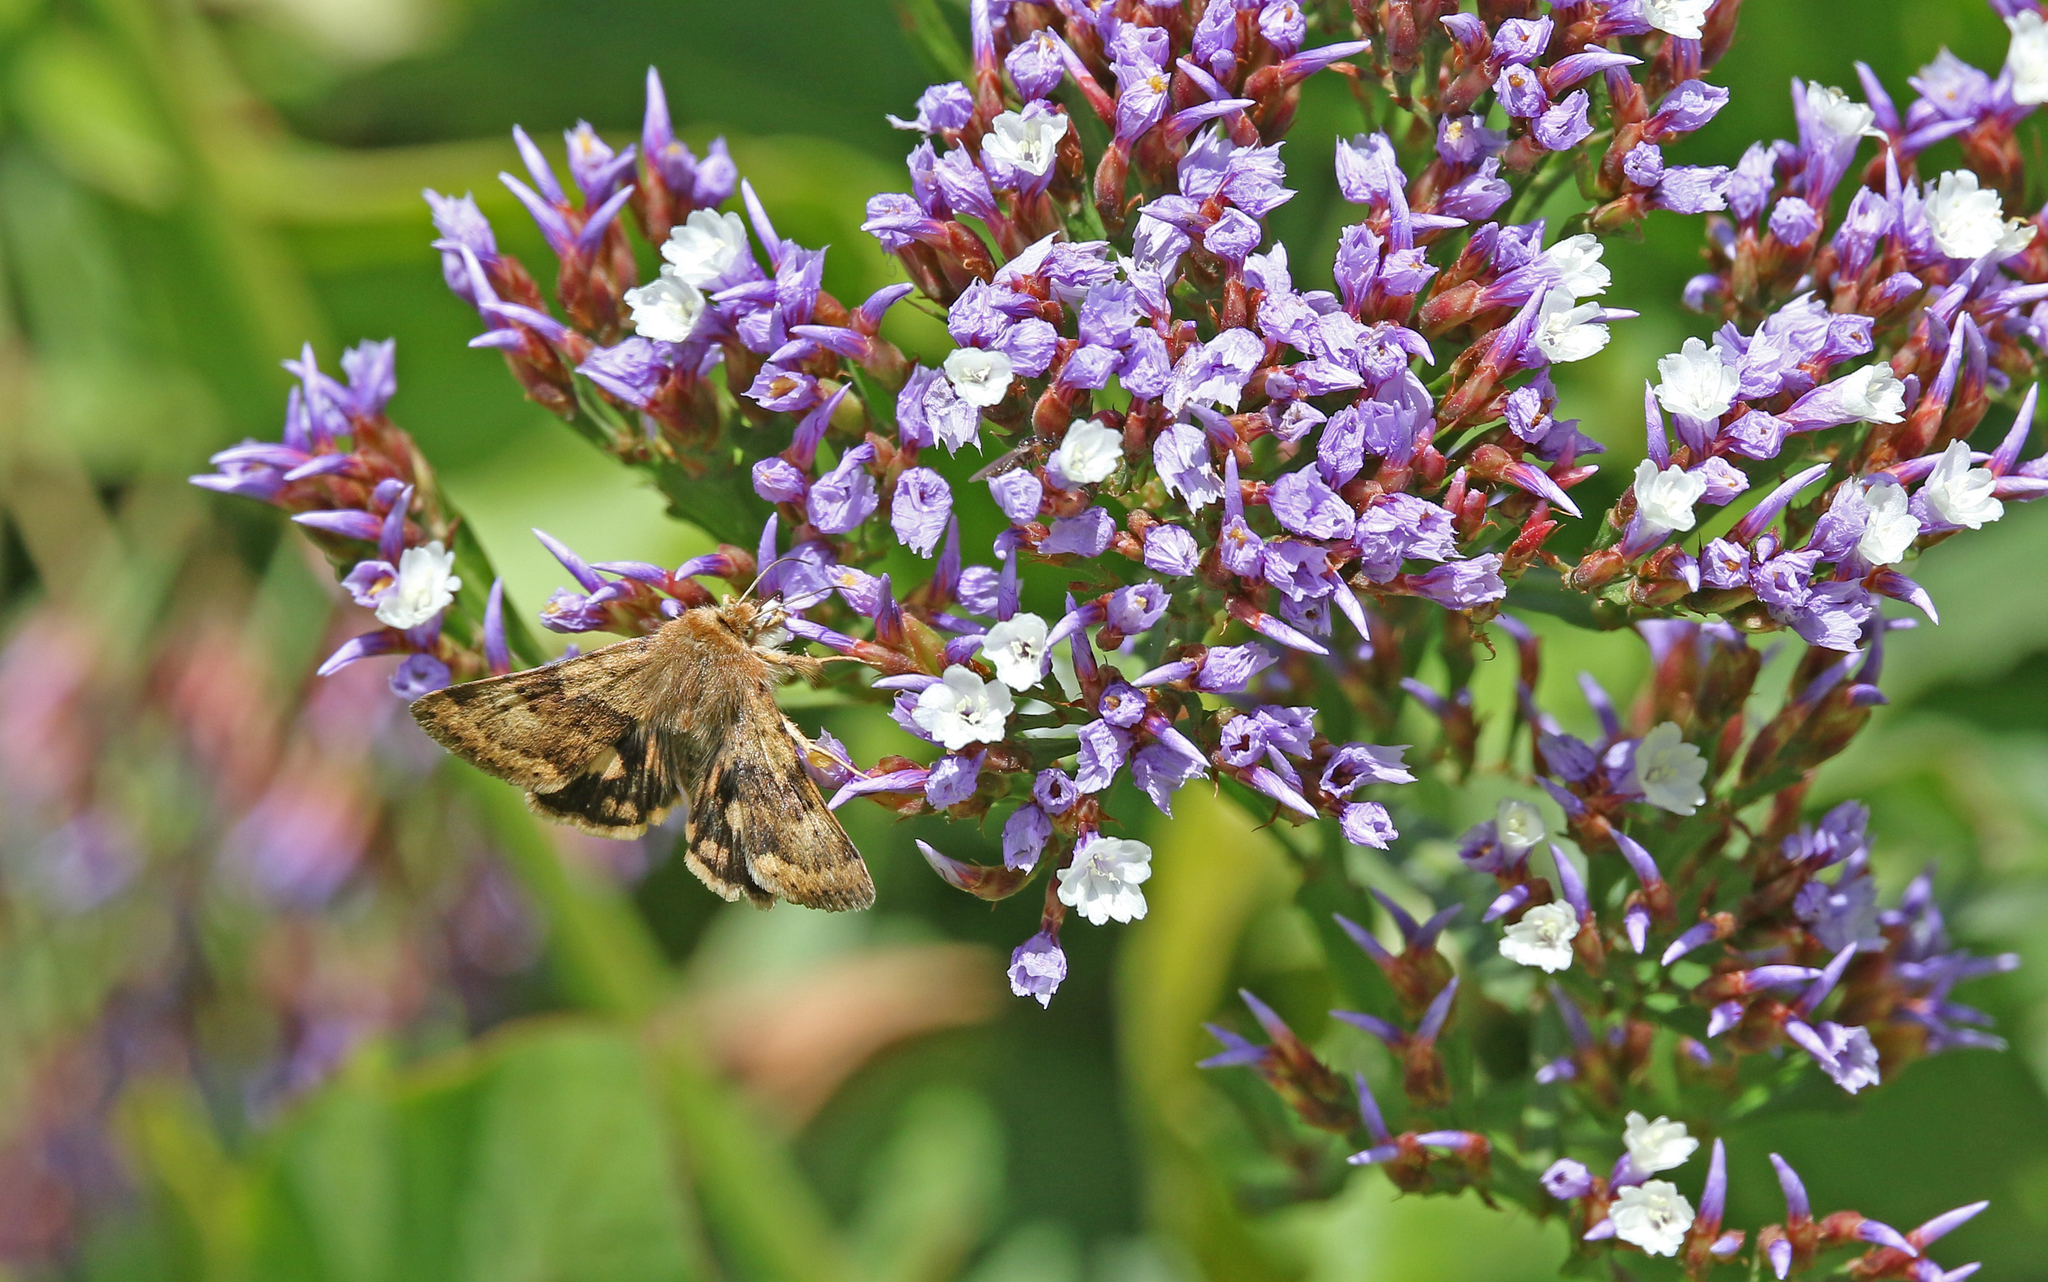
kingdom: Animalia
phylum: Arthropoda
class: Insecta
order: Lepidoptera
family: Noctuidae
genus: Heliothis
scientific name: Heliothis viriplaca
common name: Marbled clover
